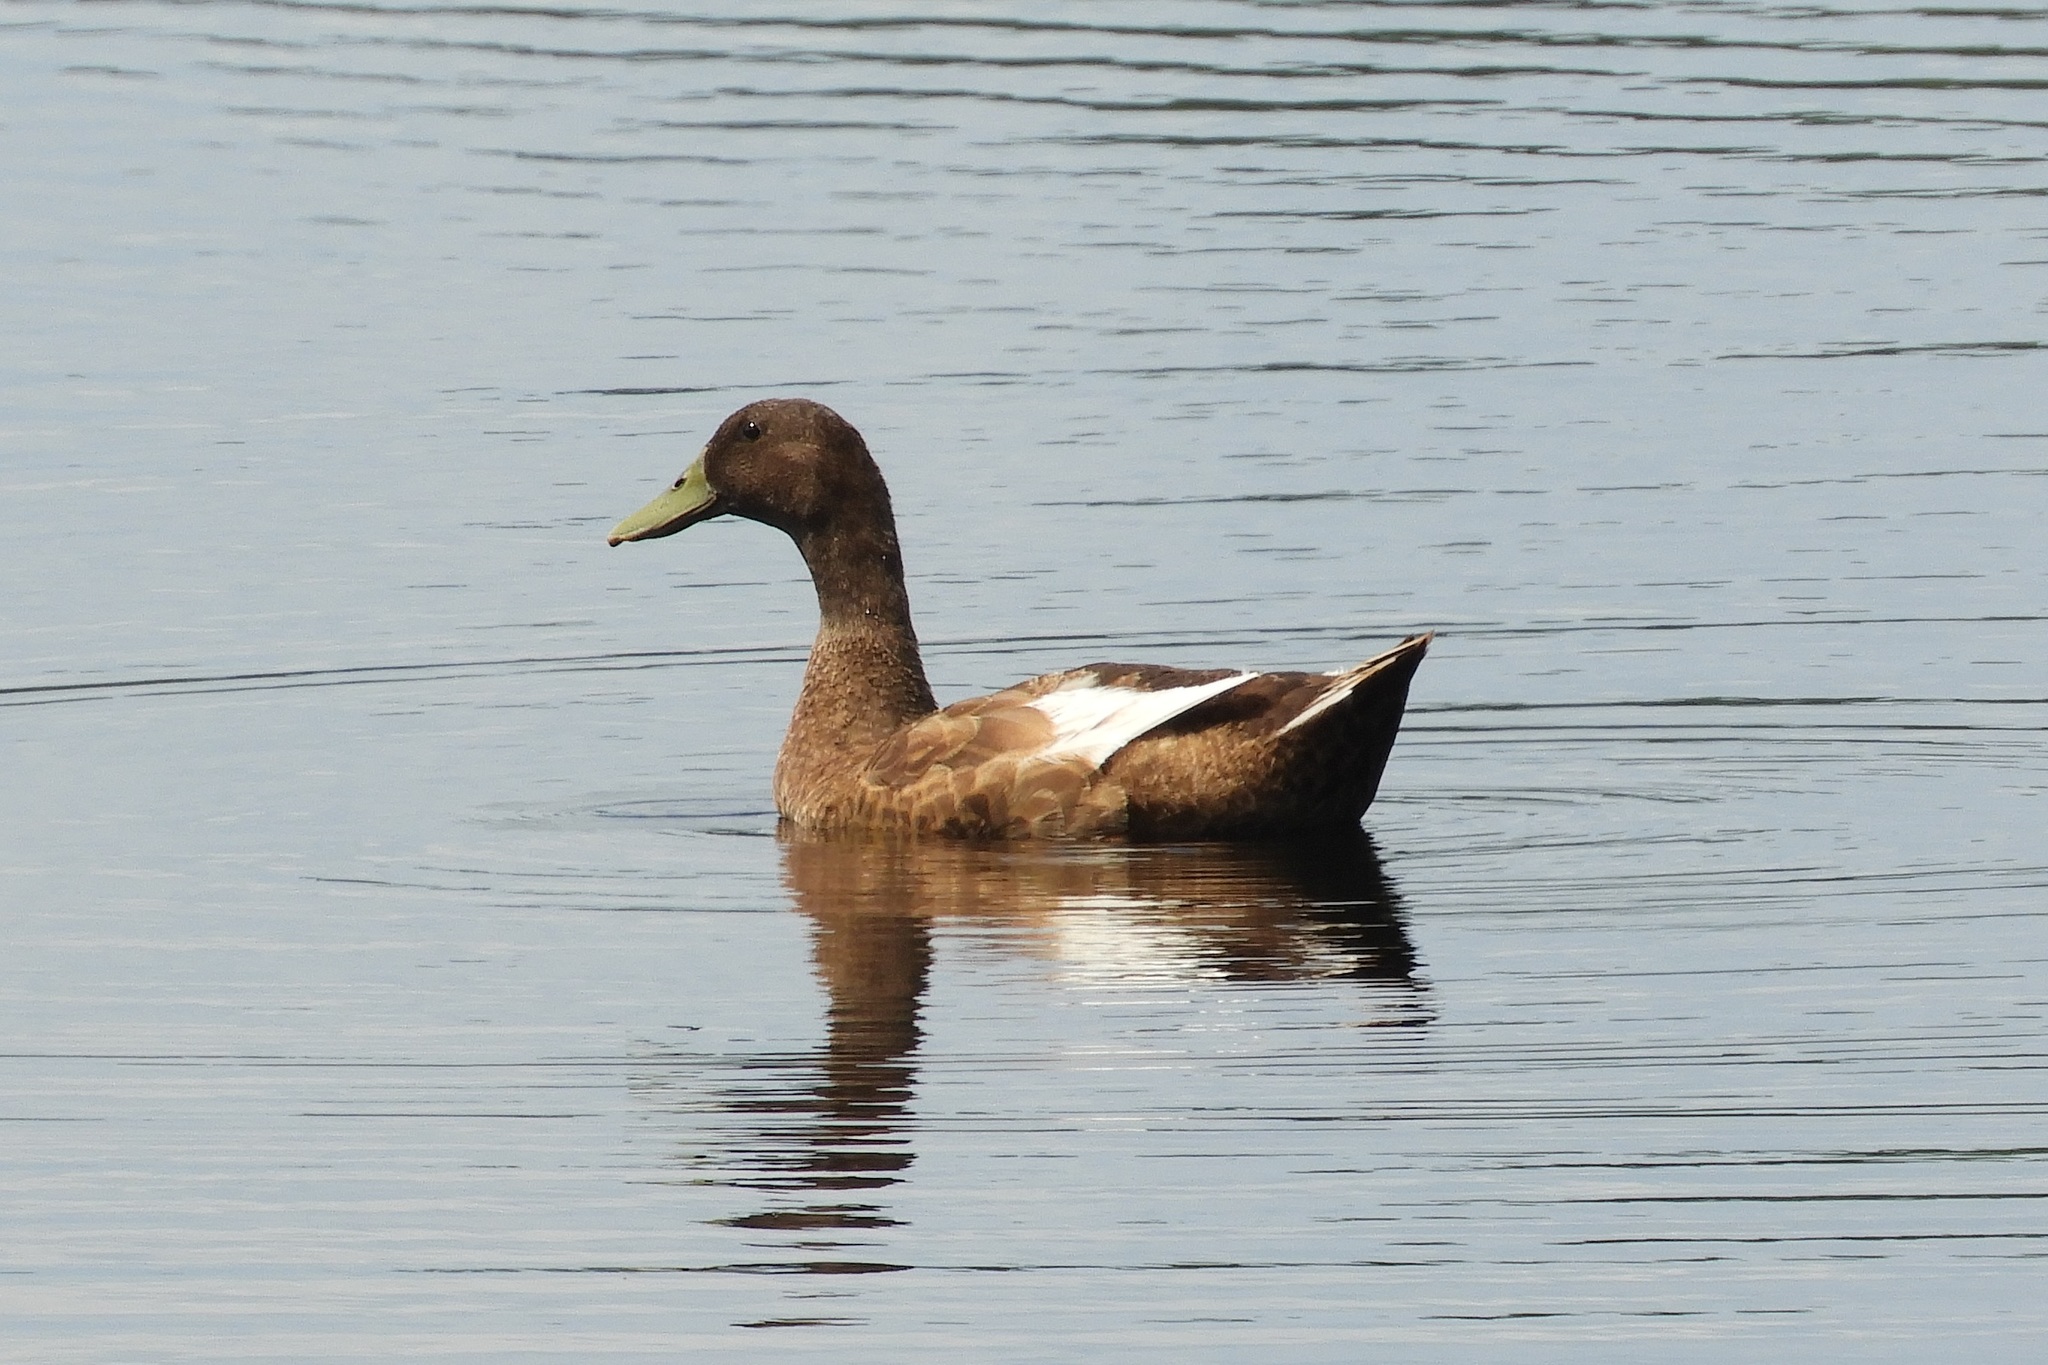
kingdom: Animalia
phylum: Chordata
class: Aves
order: Anseriformes
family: Anatidae
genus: Anas
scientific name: Anas platyrhynchos
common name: Mallard
